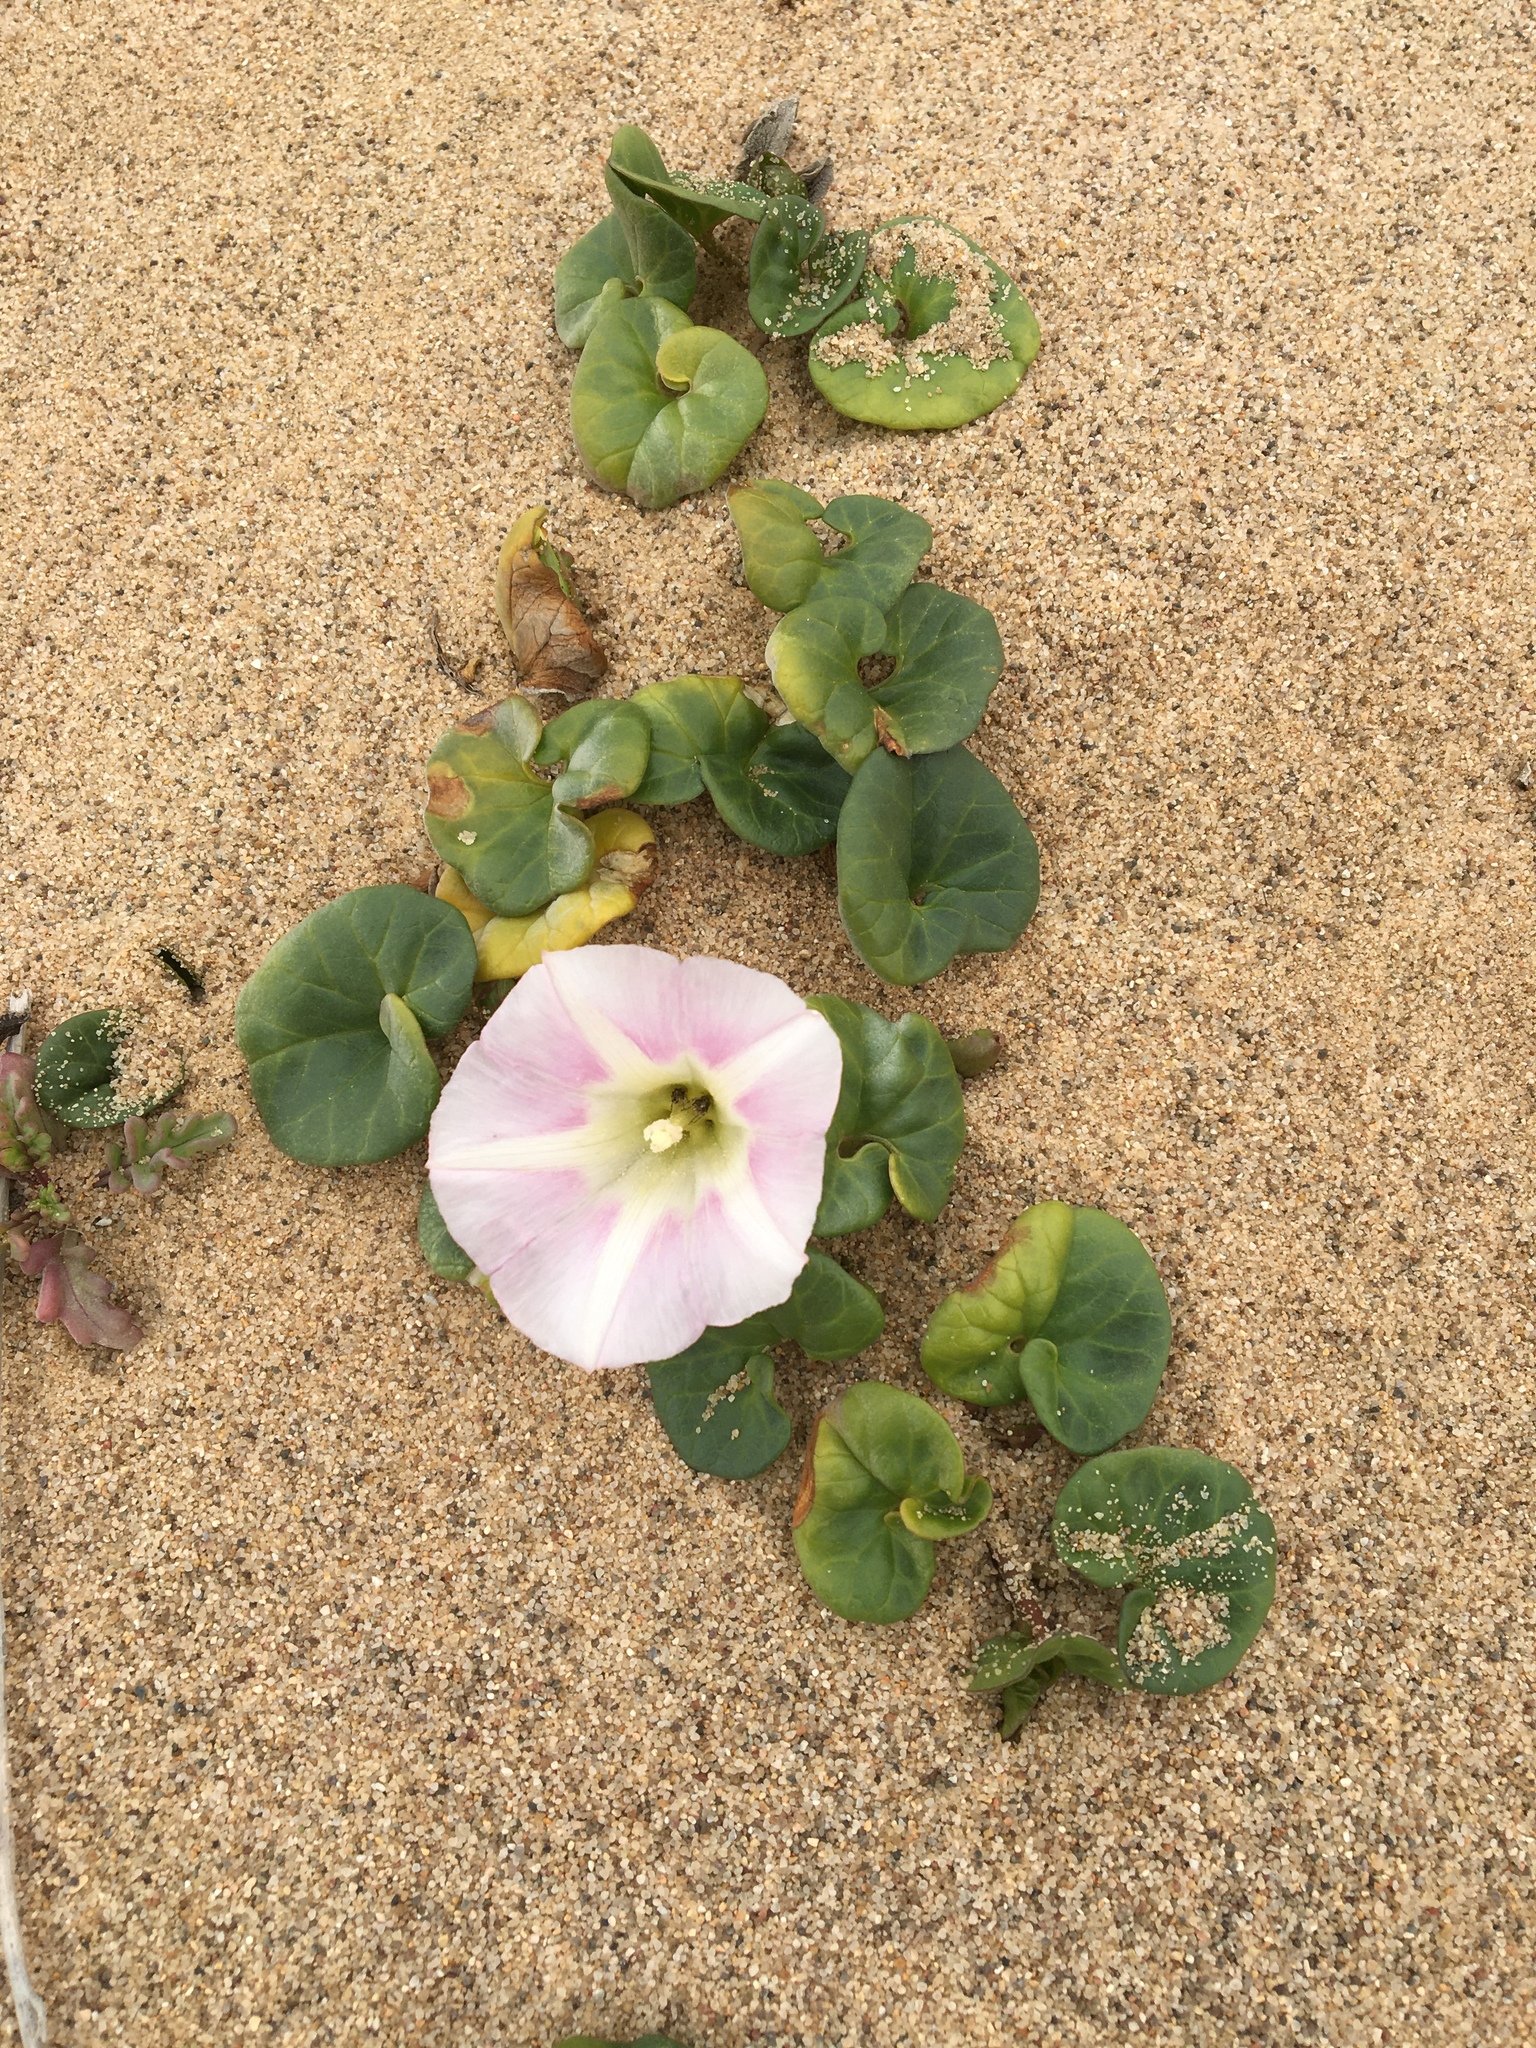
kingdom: Plantae
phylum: Tracheophyta
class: Magnoliopsida
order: Solanales
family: Convolvulaceae
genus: Calystegia
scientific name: Calystegia soldanella
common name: Sea bindweed
